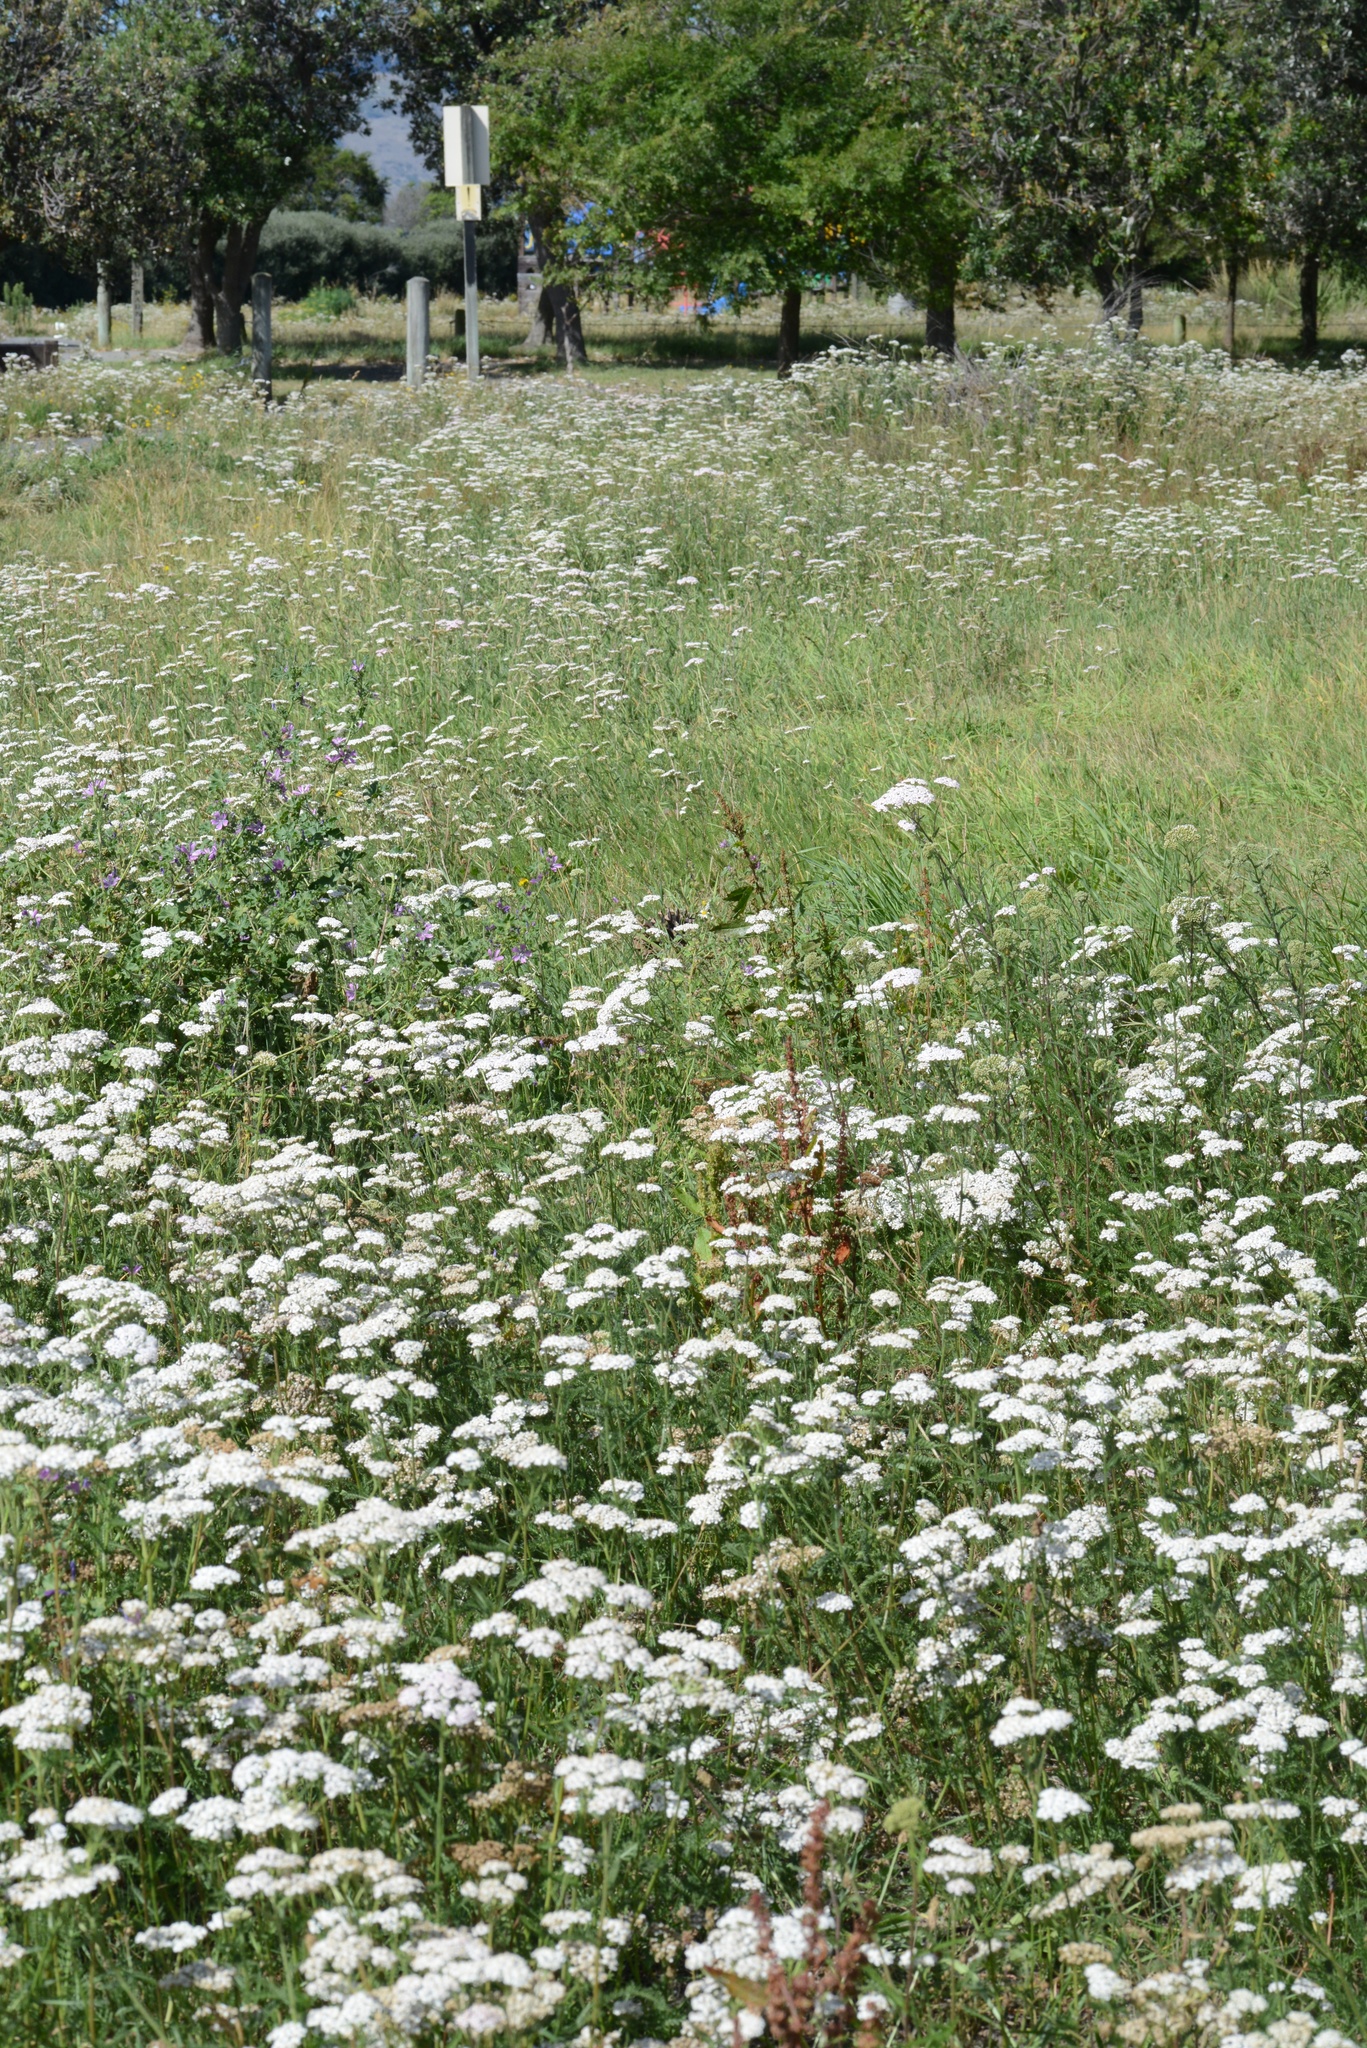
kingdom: Plantae
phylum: Tracheophyta
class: Magnoliopsida
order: Asterales
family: Asteraceae
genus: Achillea
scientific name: Achillea millefolium
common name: Yarrow
